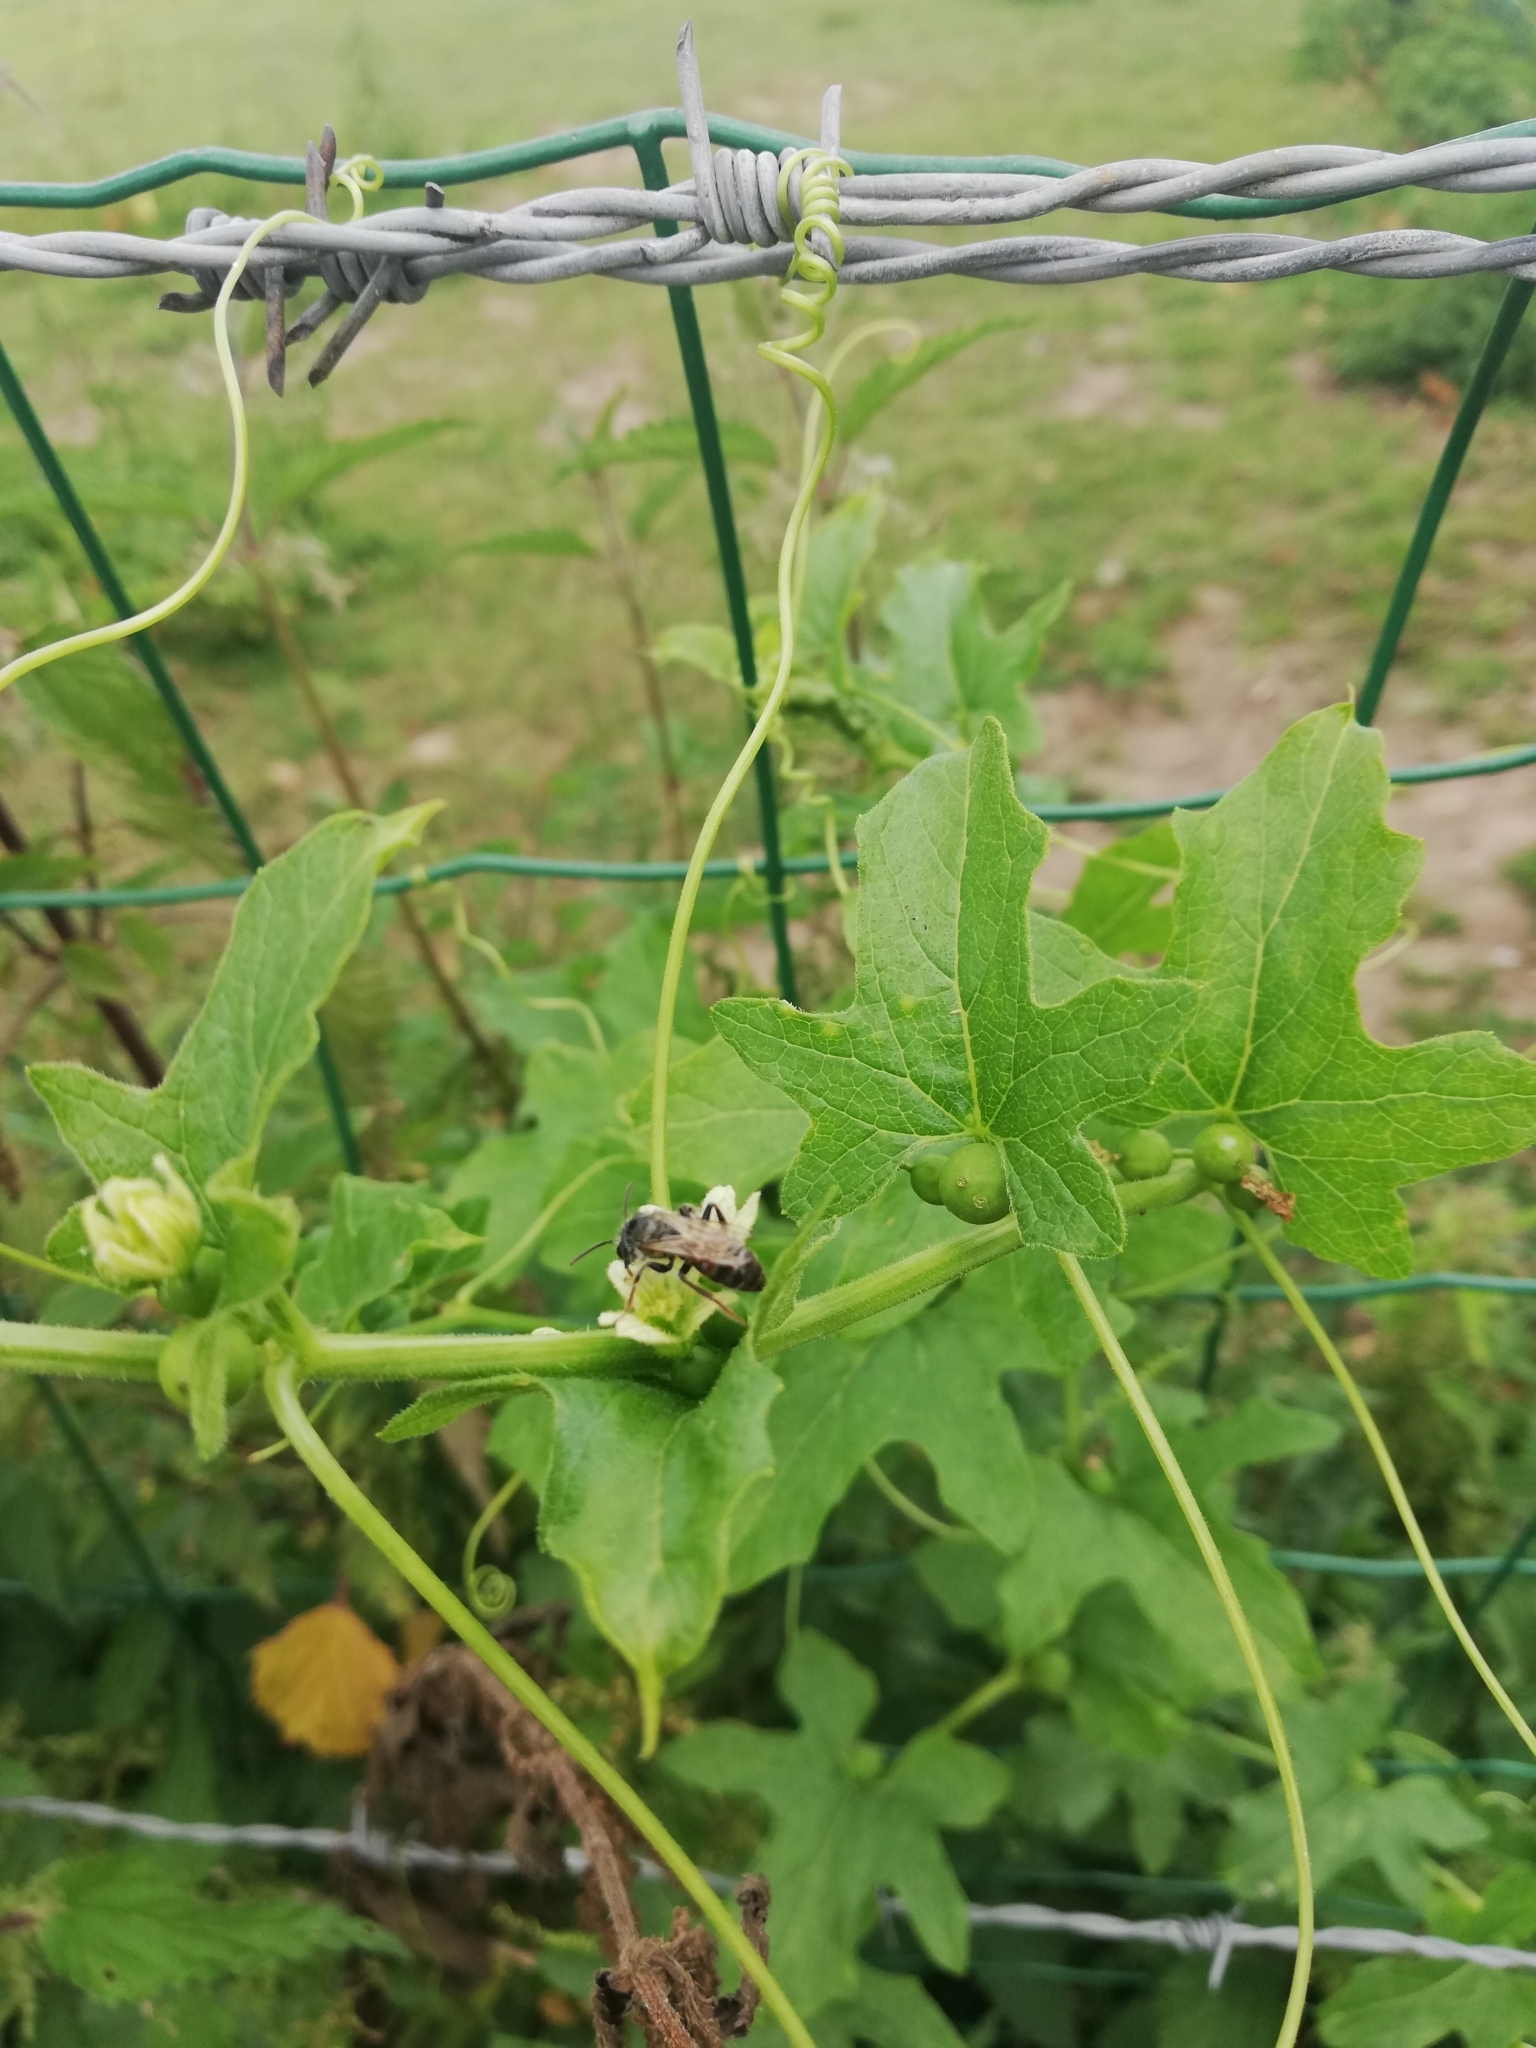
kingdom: Animalia
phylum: Arthropoda
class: Insecta
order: Hymenoptera
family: Andrenidae
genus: Andrena
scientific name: Andrena florea
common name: Bryony mining bee
